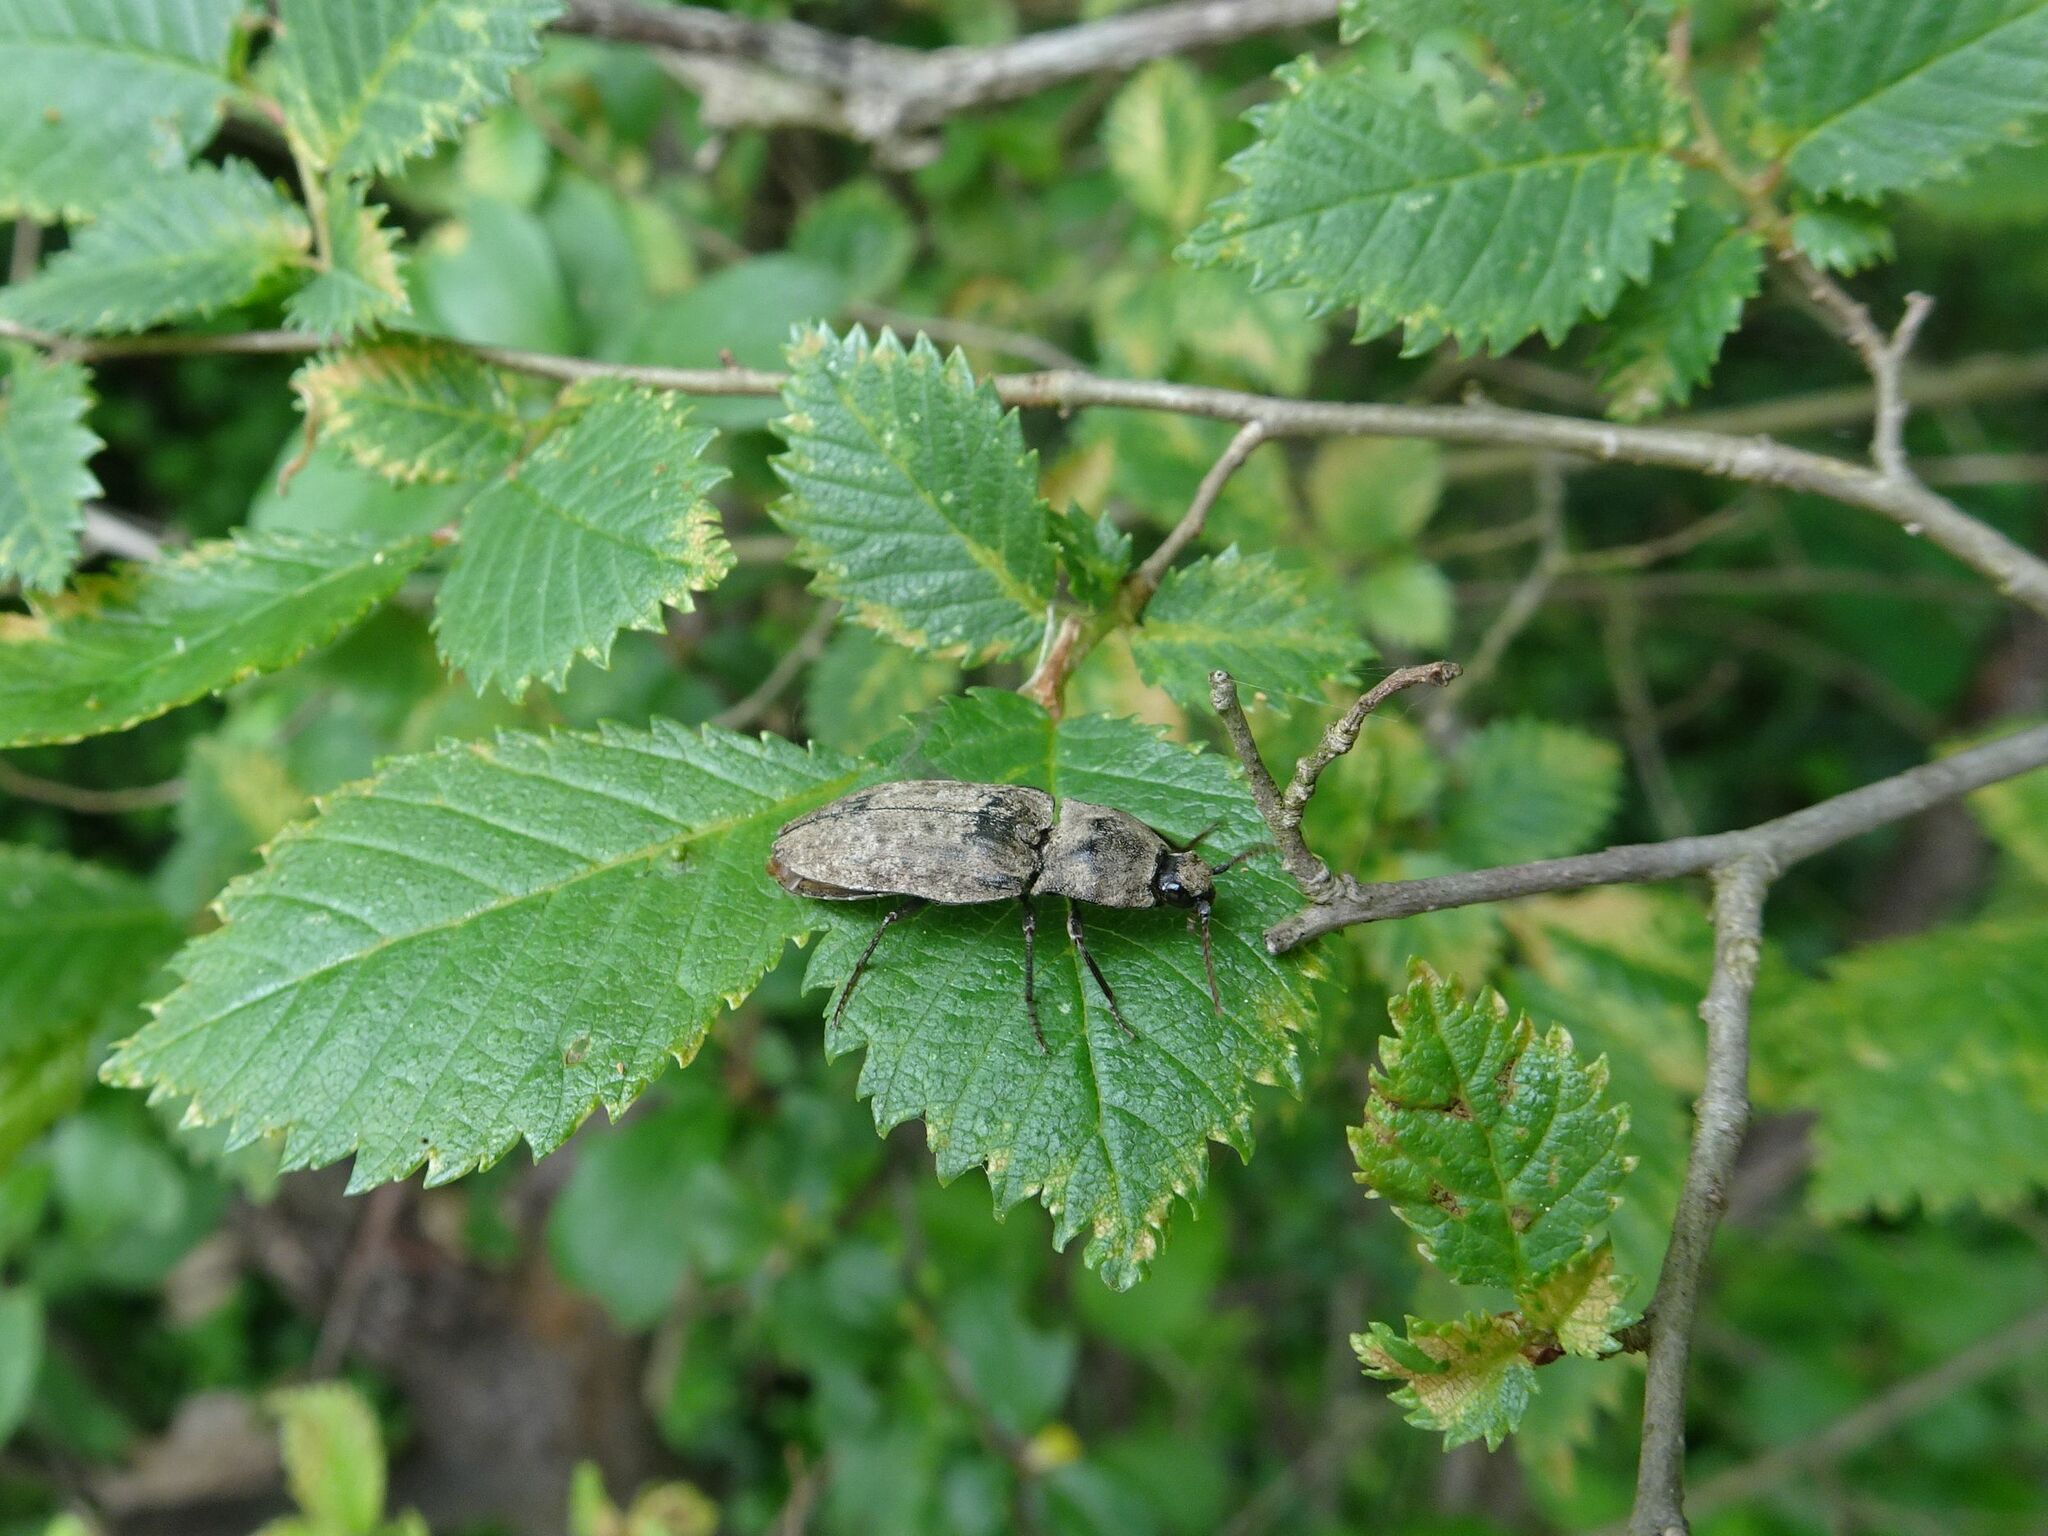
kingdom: Animalia
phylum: Arthropoda
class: Insecta
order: Coleoptera
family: Elateridae
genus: Agrypnus
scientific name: Agrypnus murinus
